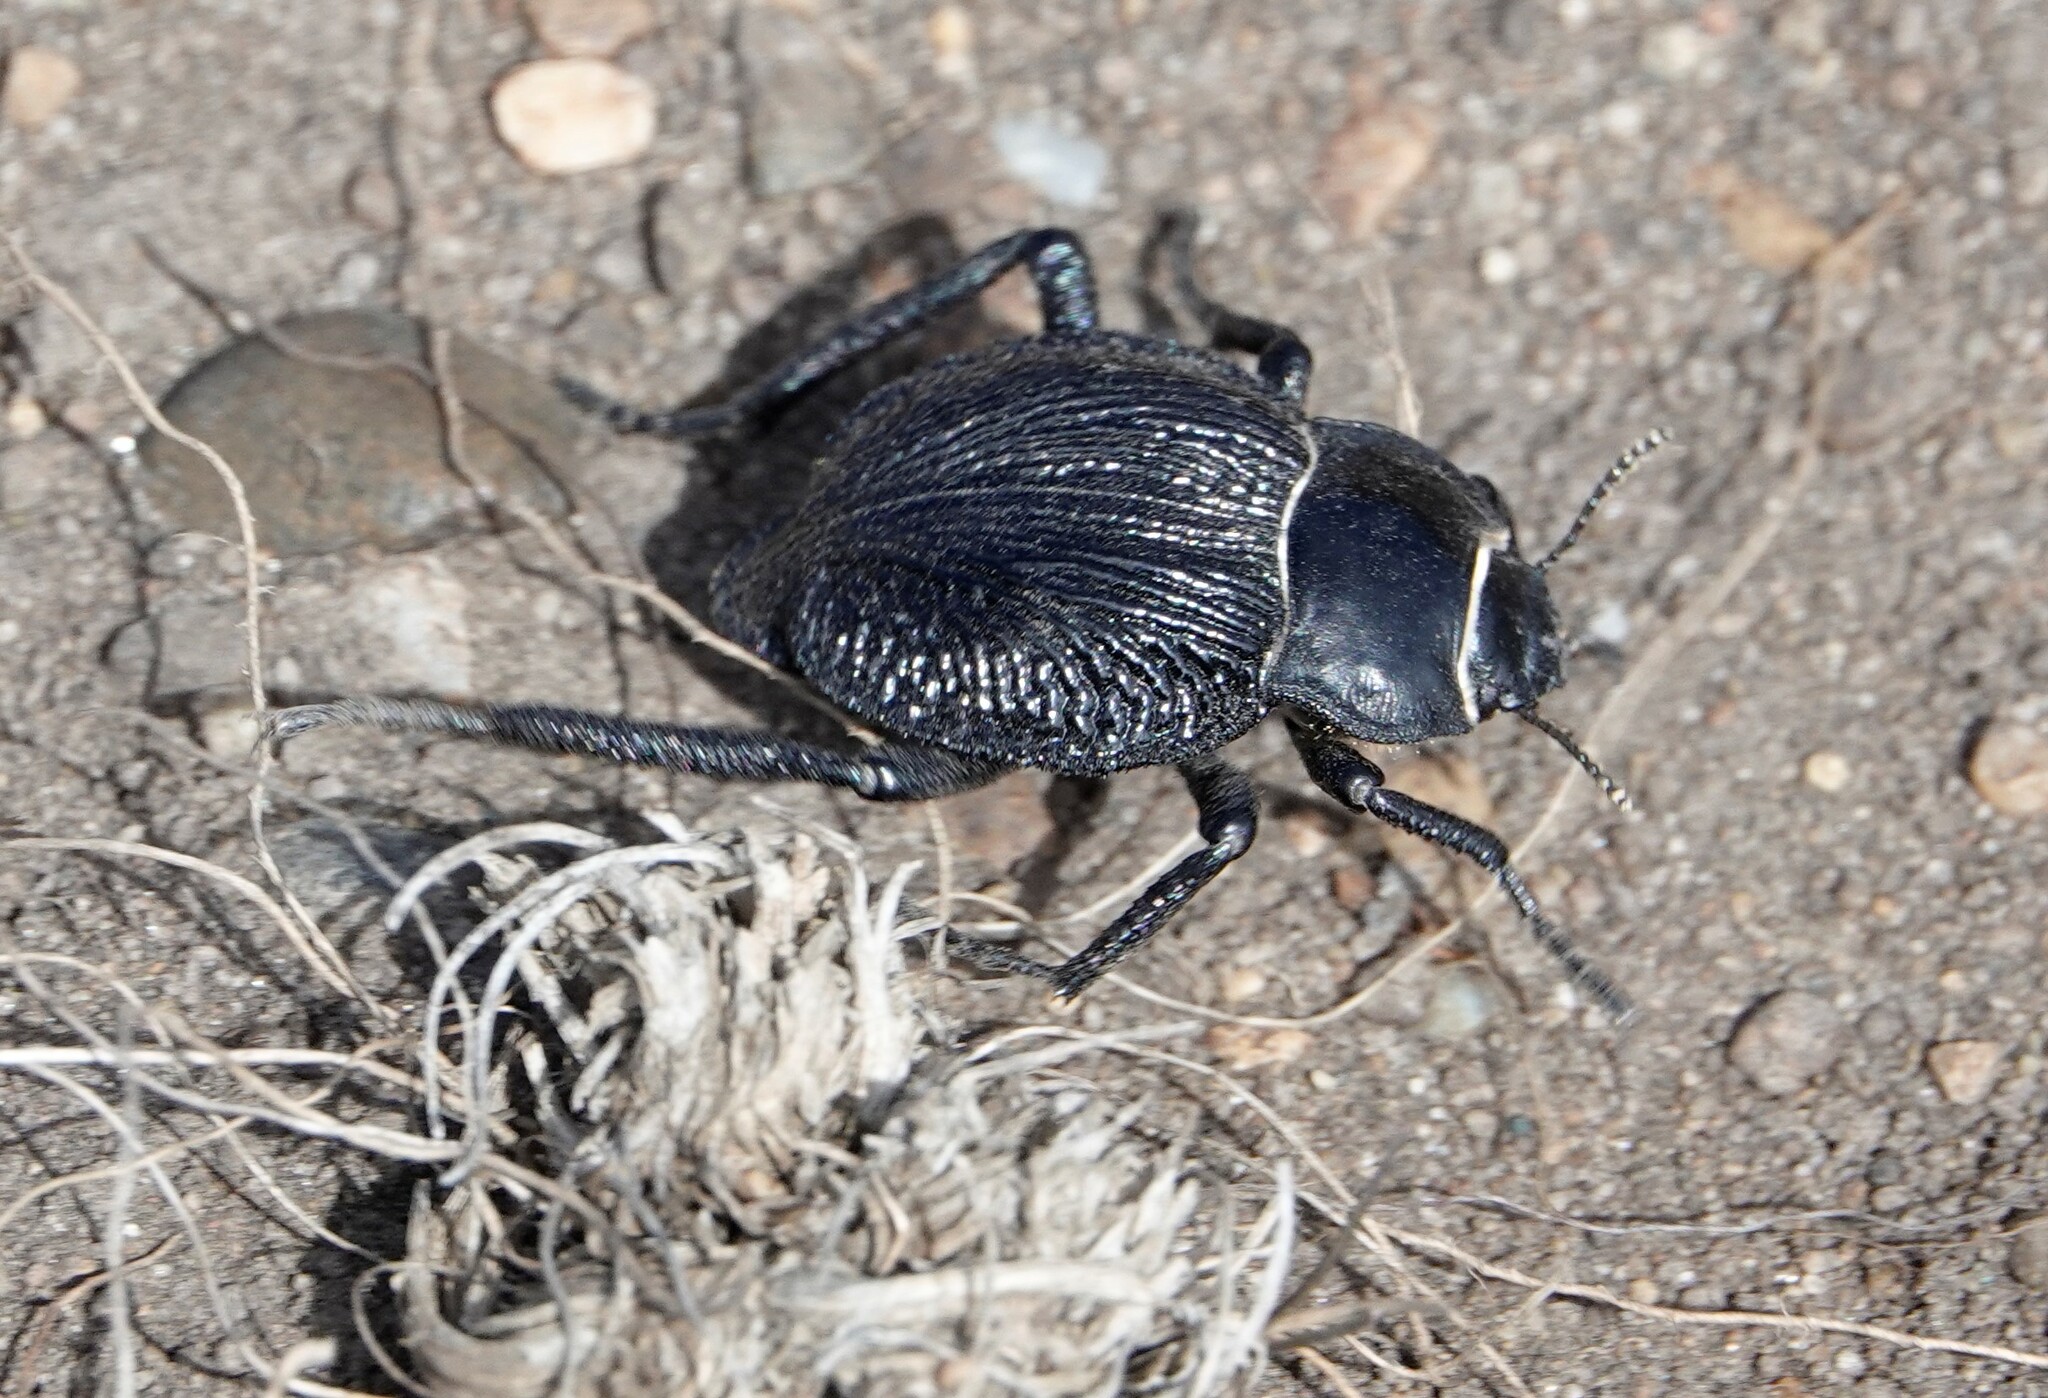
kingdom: Animalia
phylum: Arthropoda
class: Insecta
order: Coleoptera
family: Tenebrionidae
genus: Nyctelia
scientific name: Nyctelia
